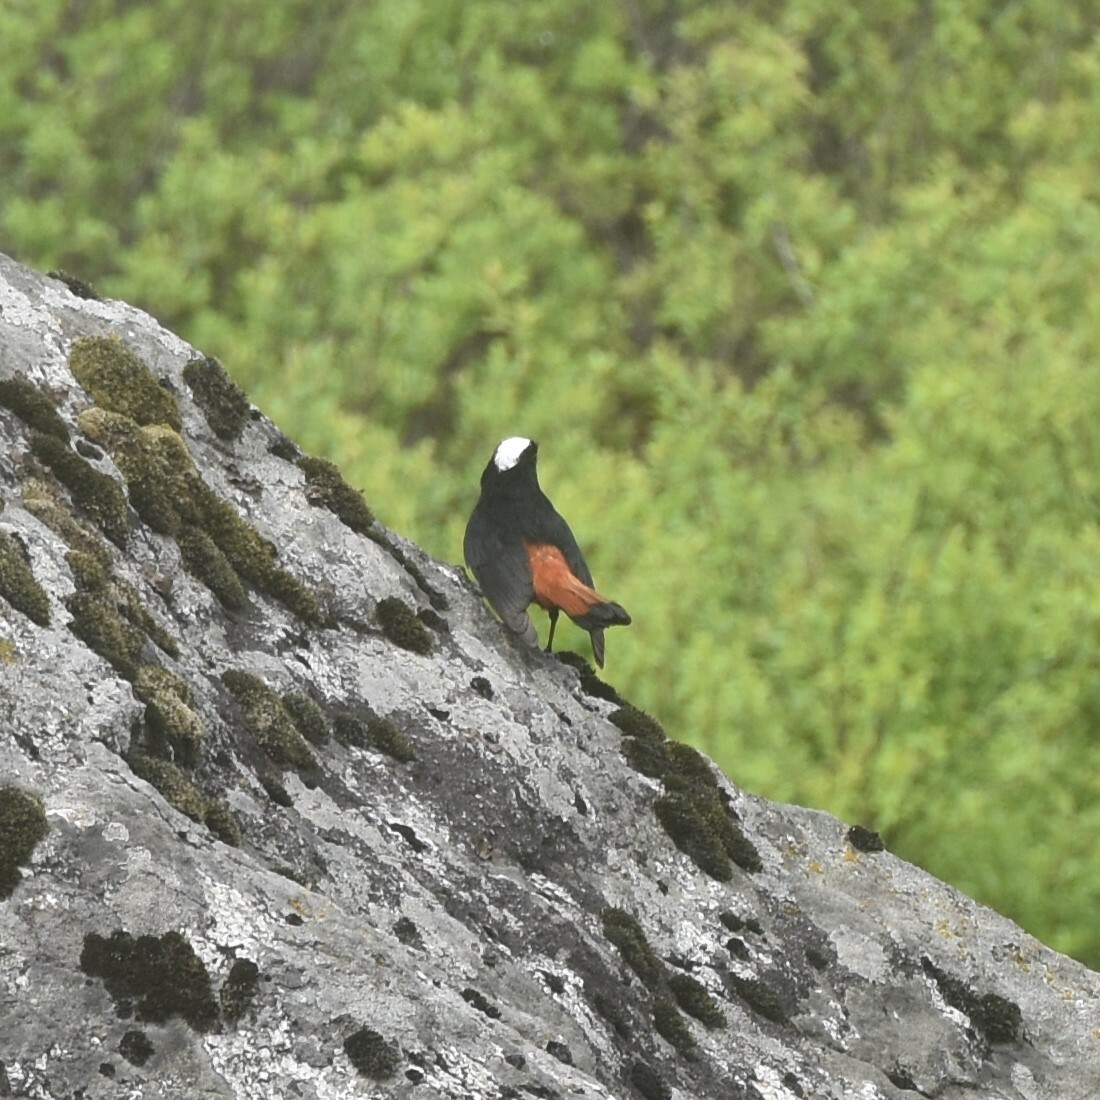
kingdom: Animalia
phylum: Chordata
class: Aves
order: Passeriformes
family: Muscicapidae
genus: Chaimarrornis
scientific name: Chaimarrornis leucocephalus
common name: White-capped redstart
